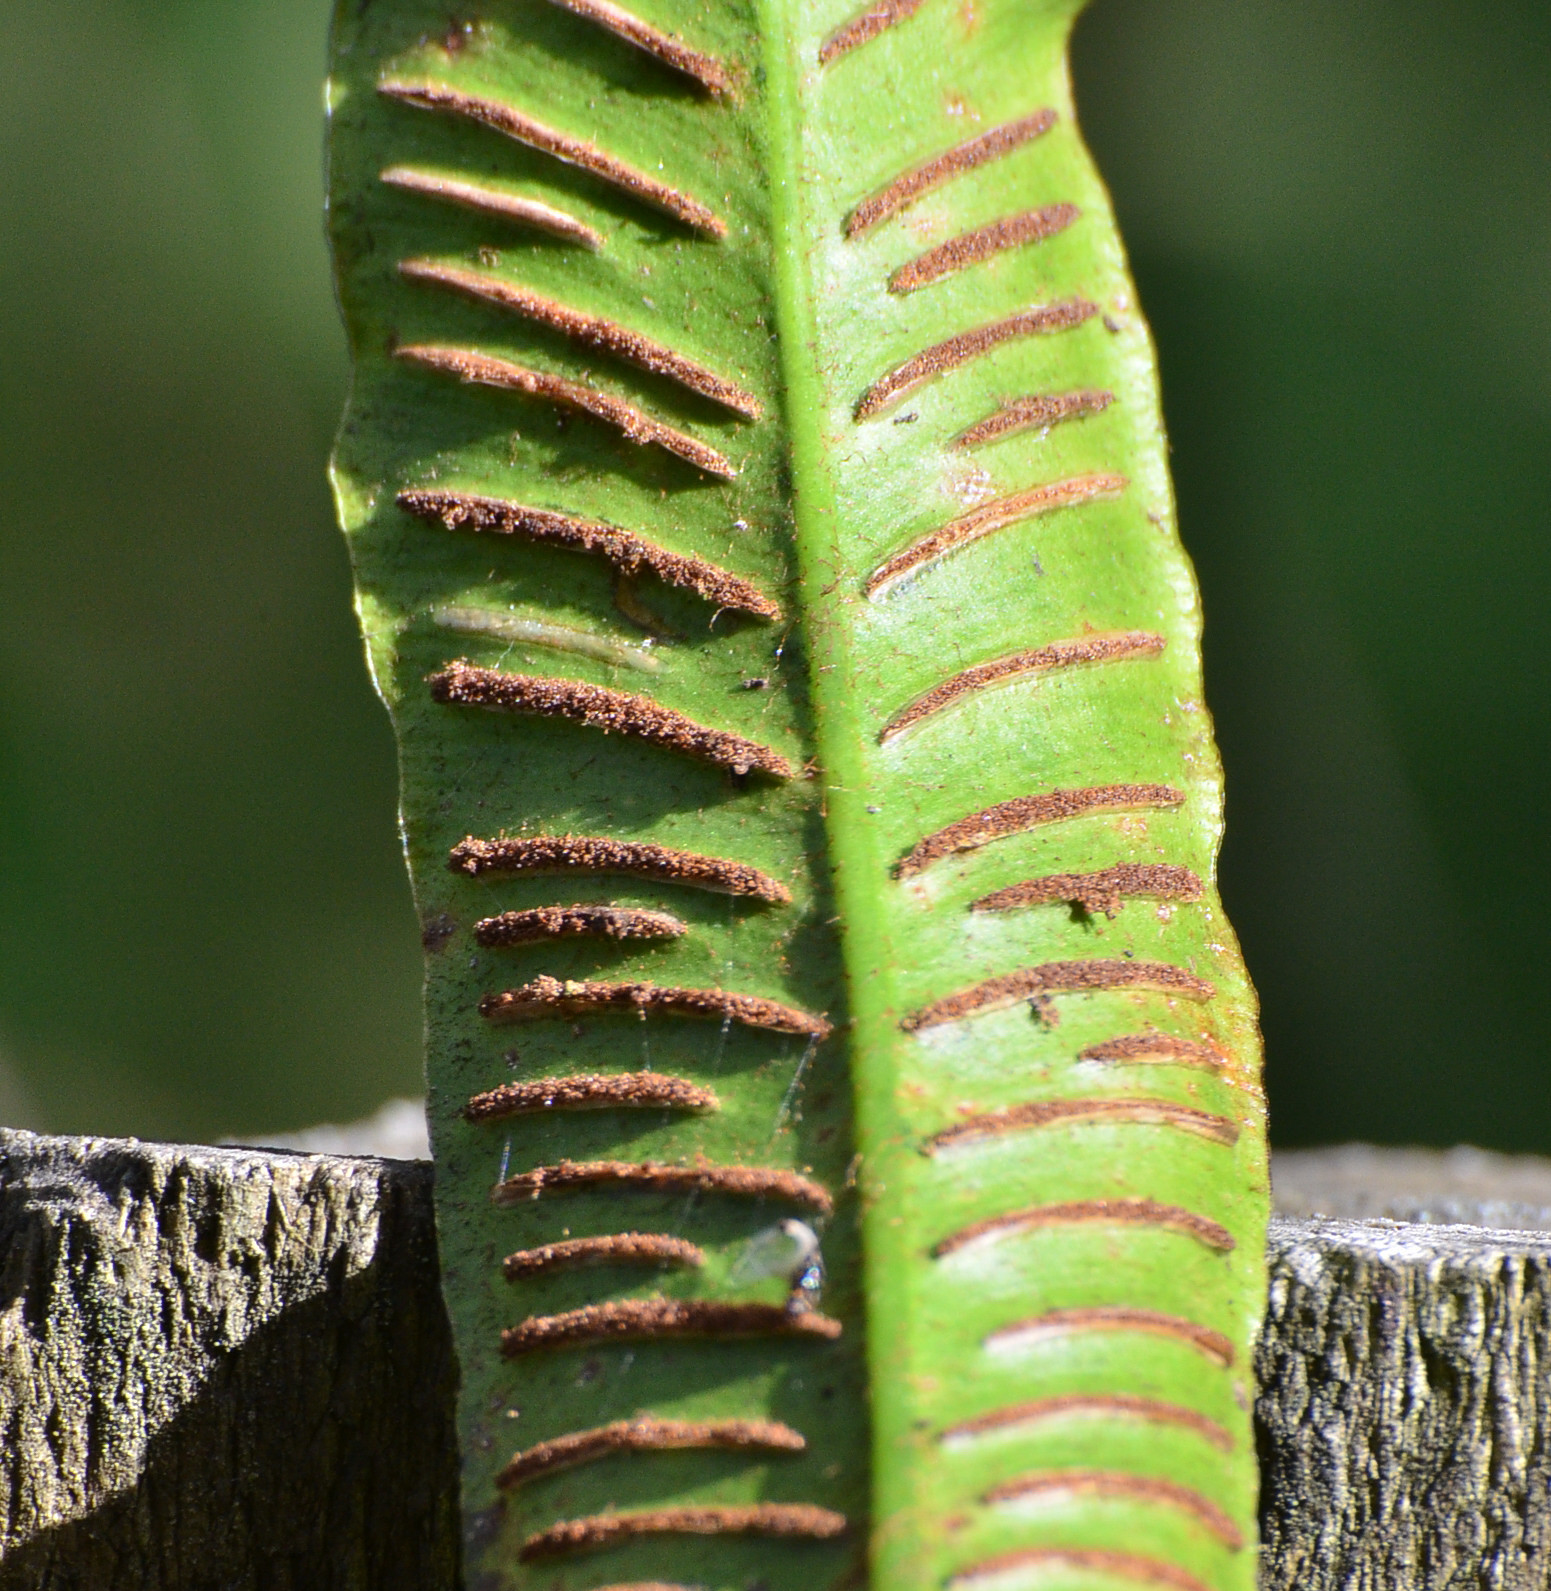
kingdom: Plantae
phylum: Tracheophyta
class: Polypodiopsida
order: Polypodiales
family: Aspleniaceae
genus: Asplenium
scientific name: Asplenium scolopendrium
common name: Hart's-tongue fern
